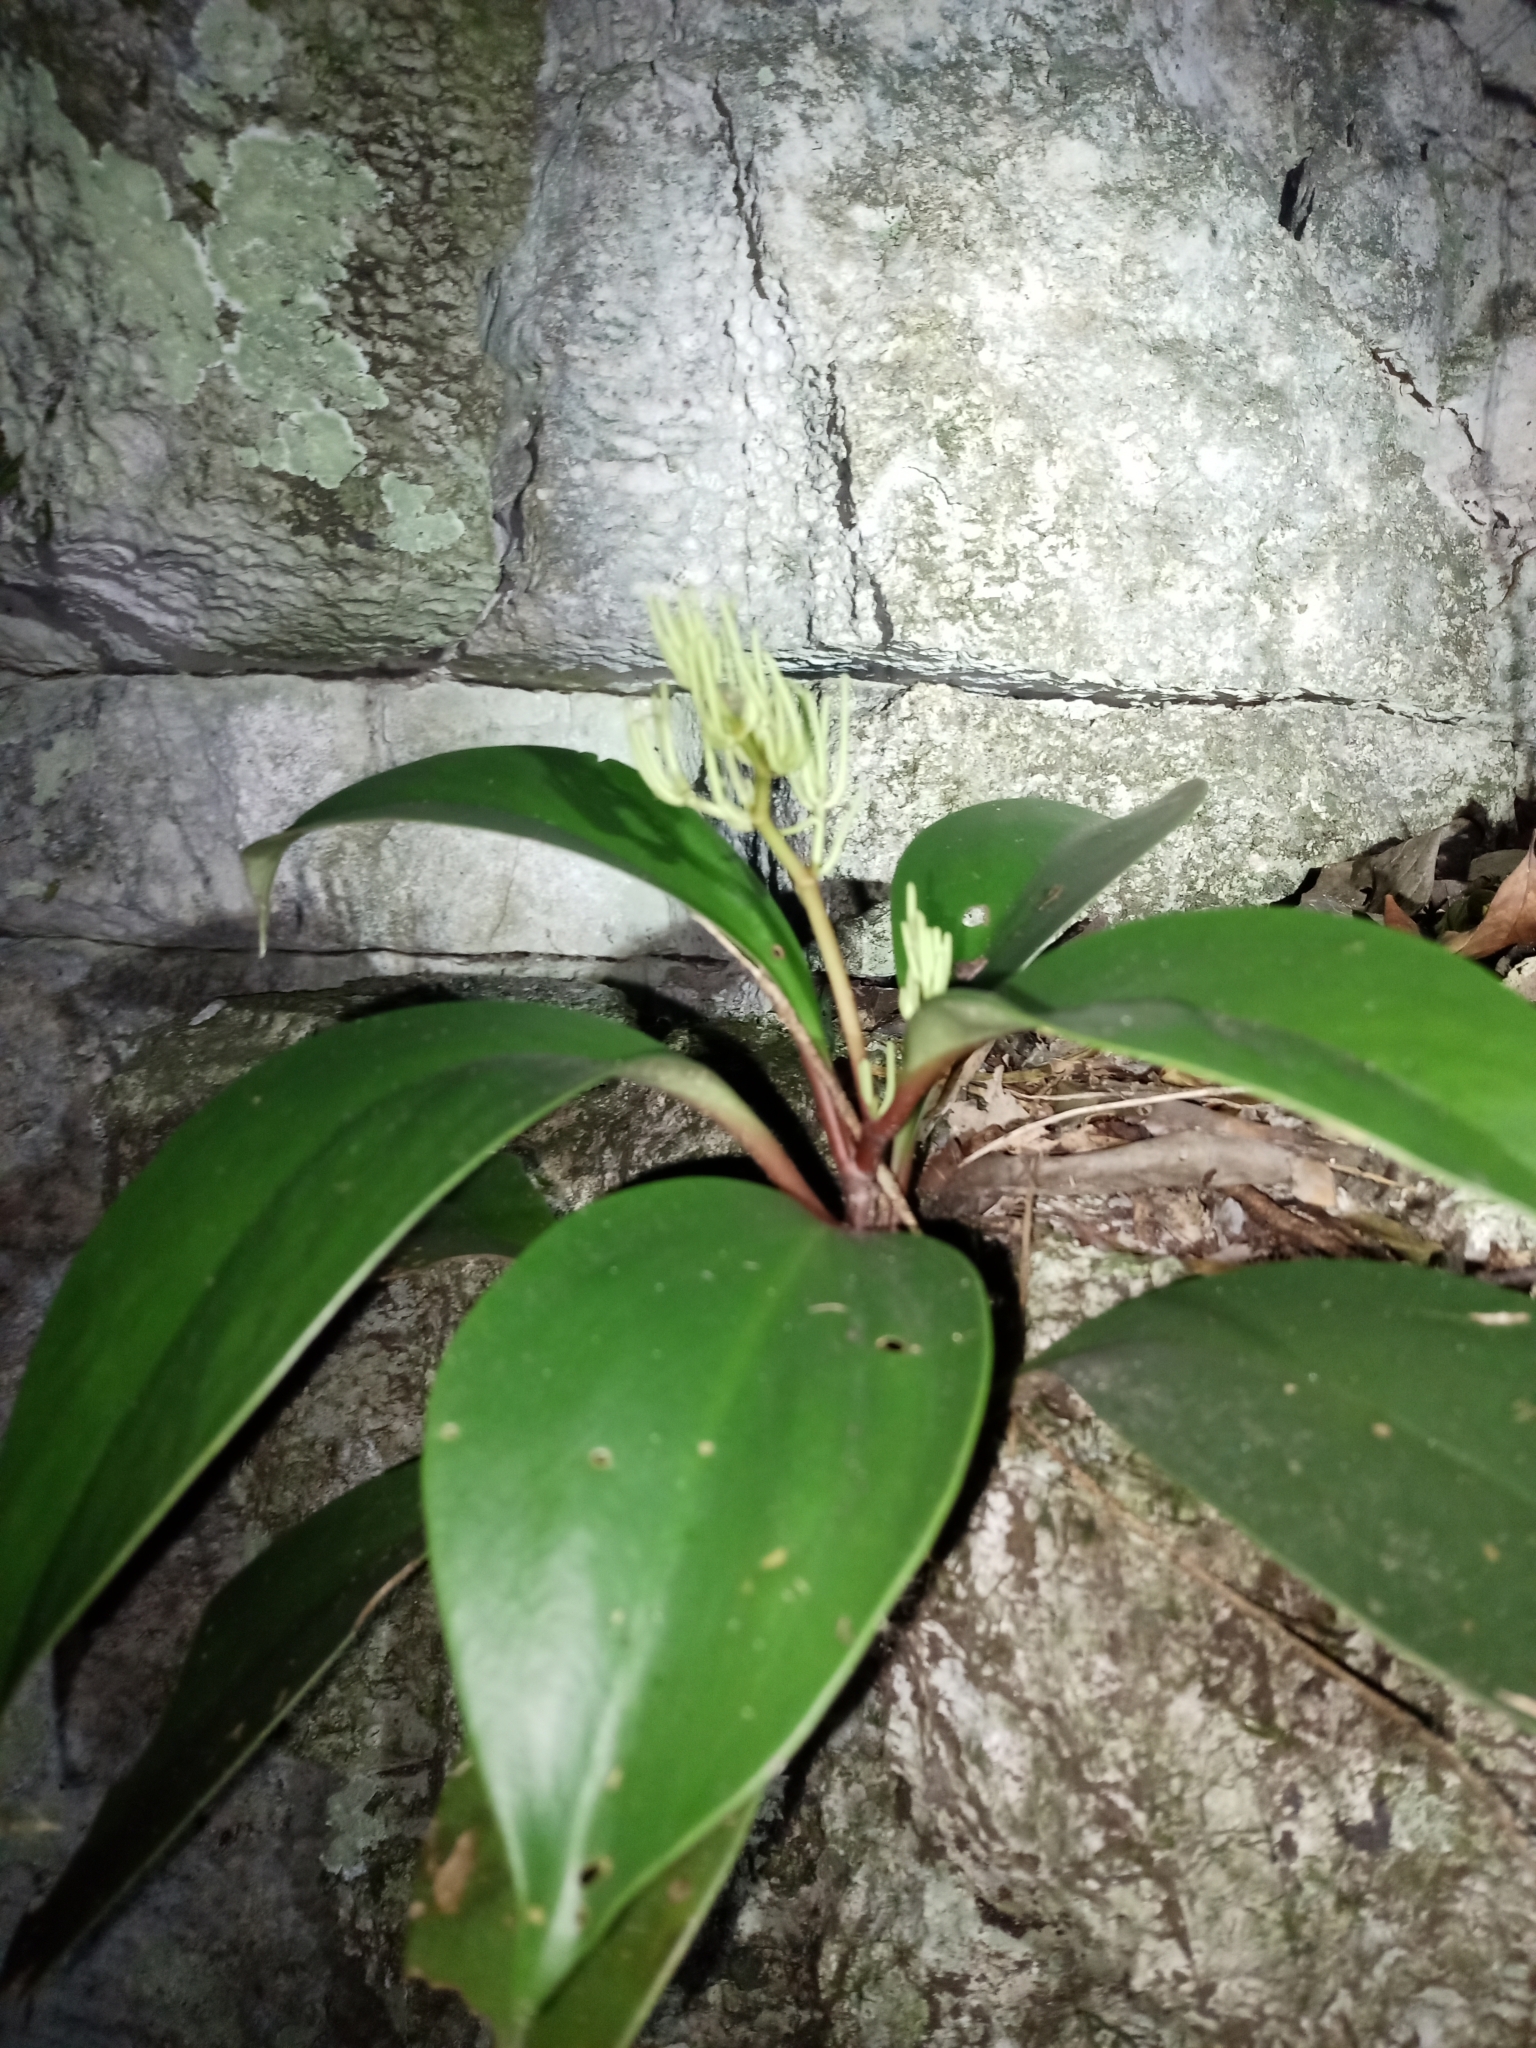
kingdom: Plantae
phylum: Tracheophyta
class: Magnoliopsida
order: Piperales
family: Piperaceae
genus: Peperomia
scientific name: Peperomia parastriata
